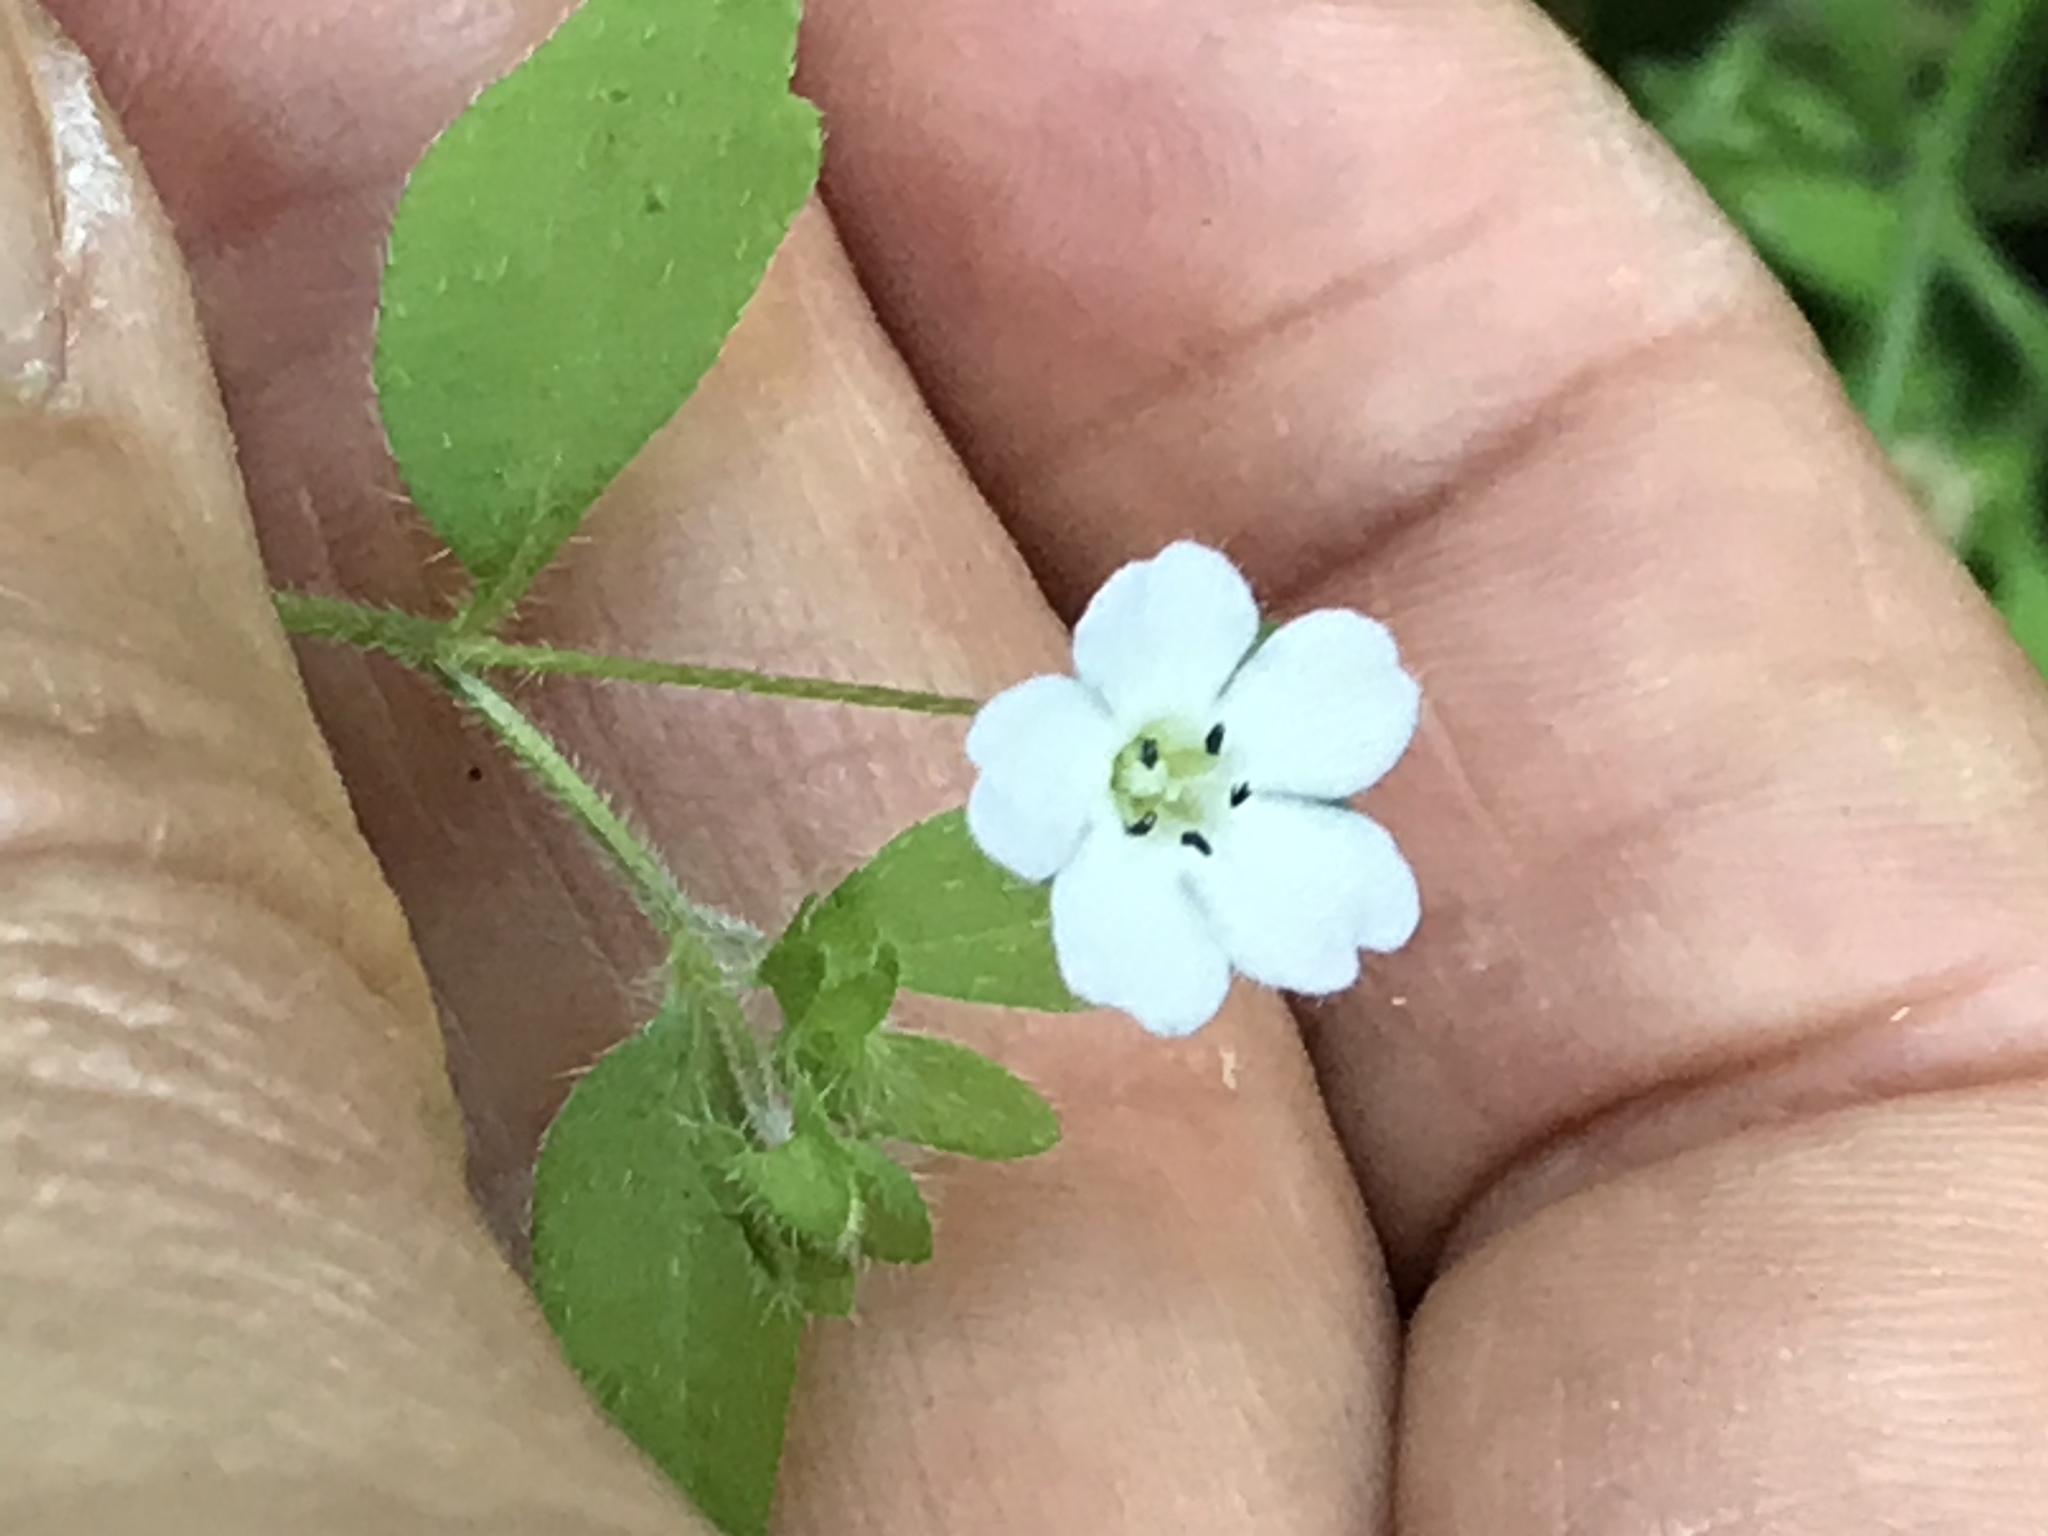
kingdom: Plantae
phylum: Tracheophyta
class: Magnoliopsida
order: Boraginales
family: Hydrophyllaceae
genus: Nemophila
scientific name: Nemophila heterophylla
